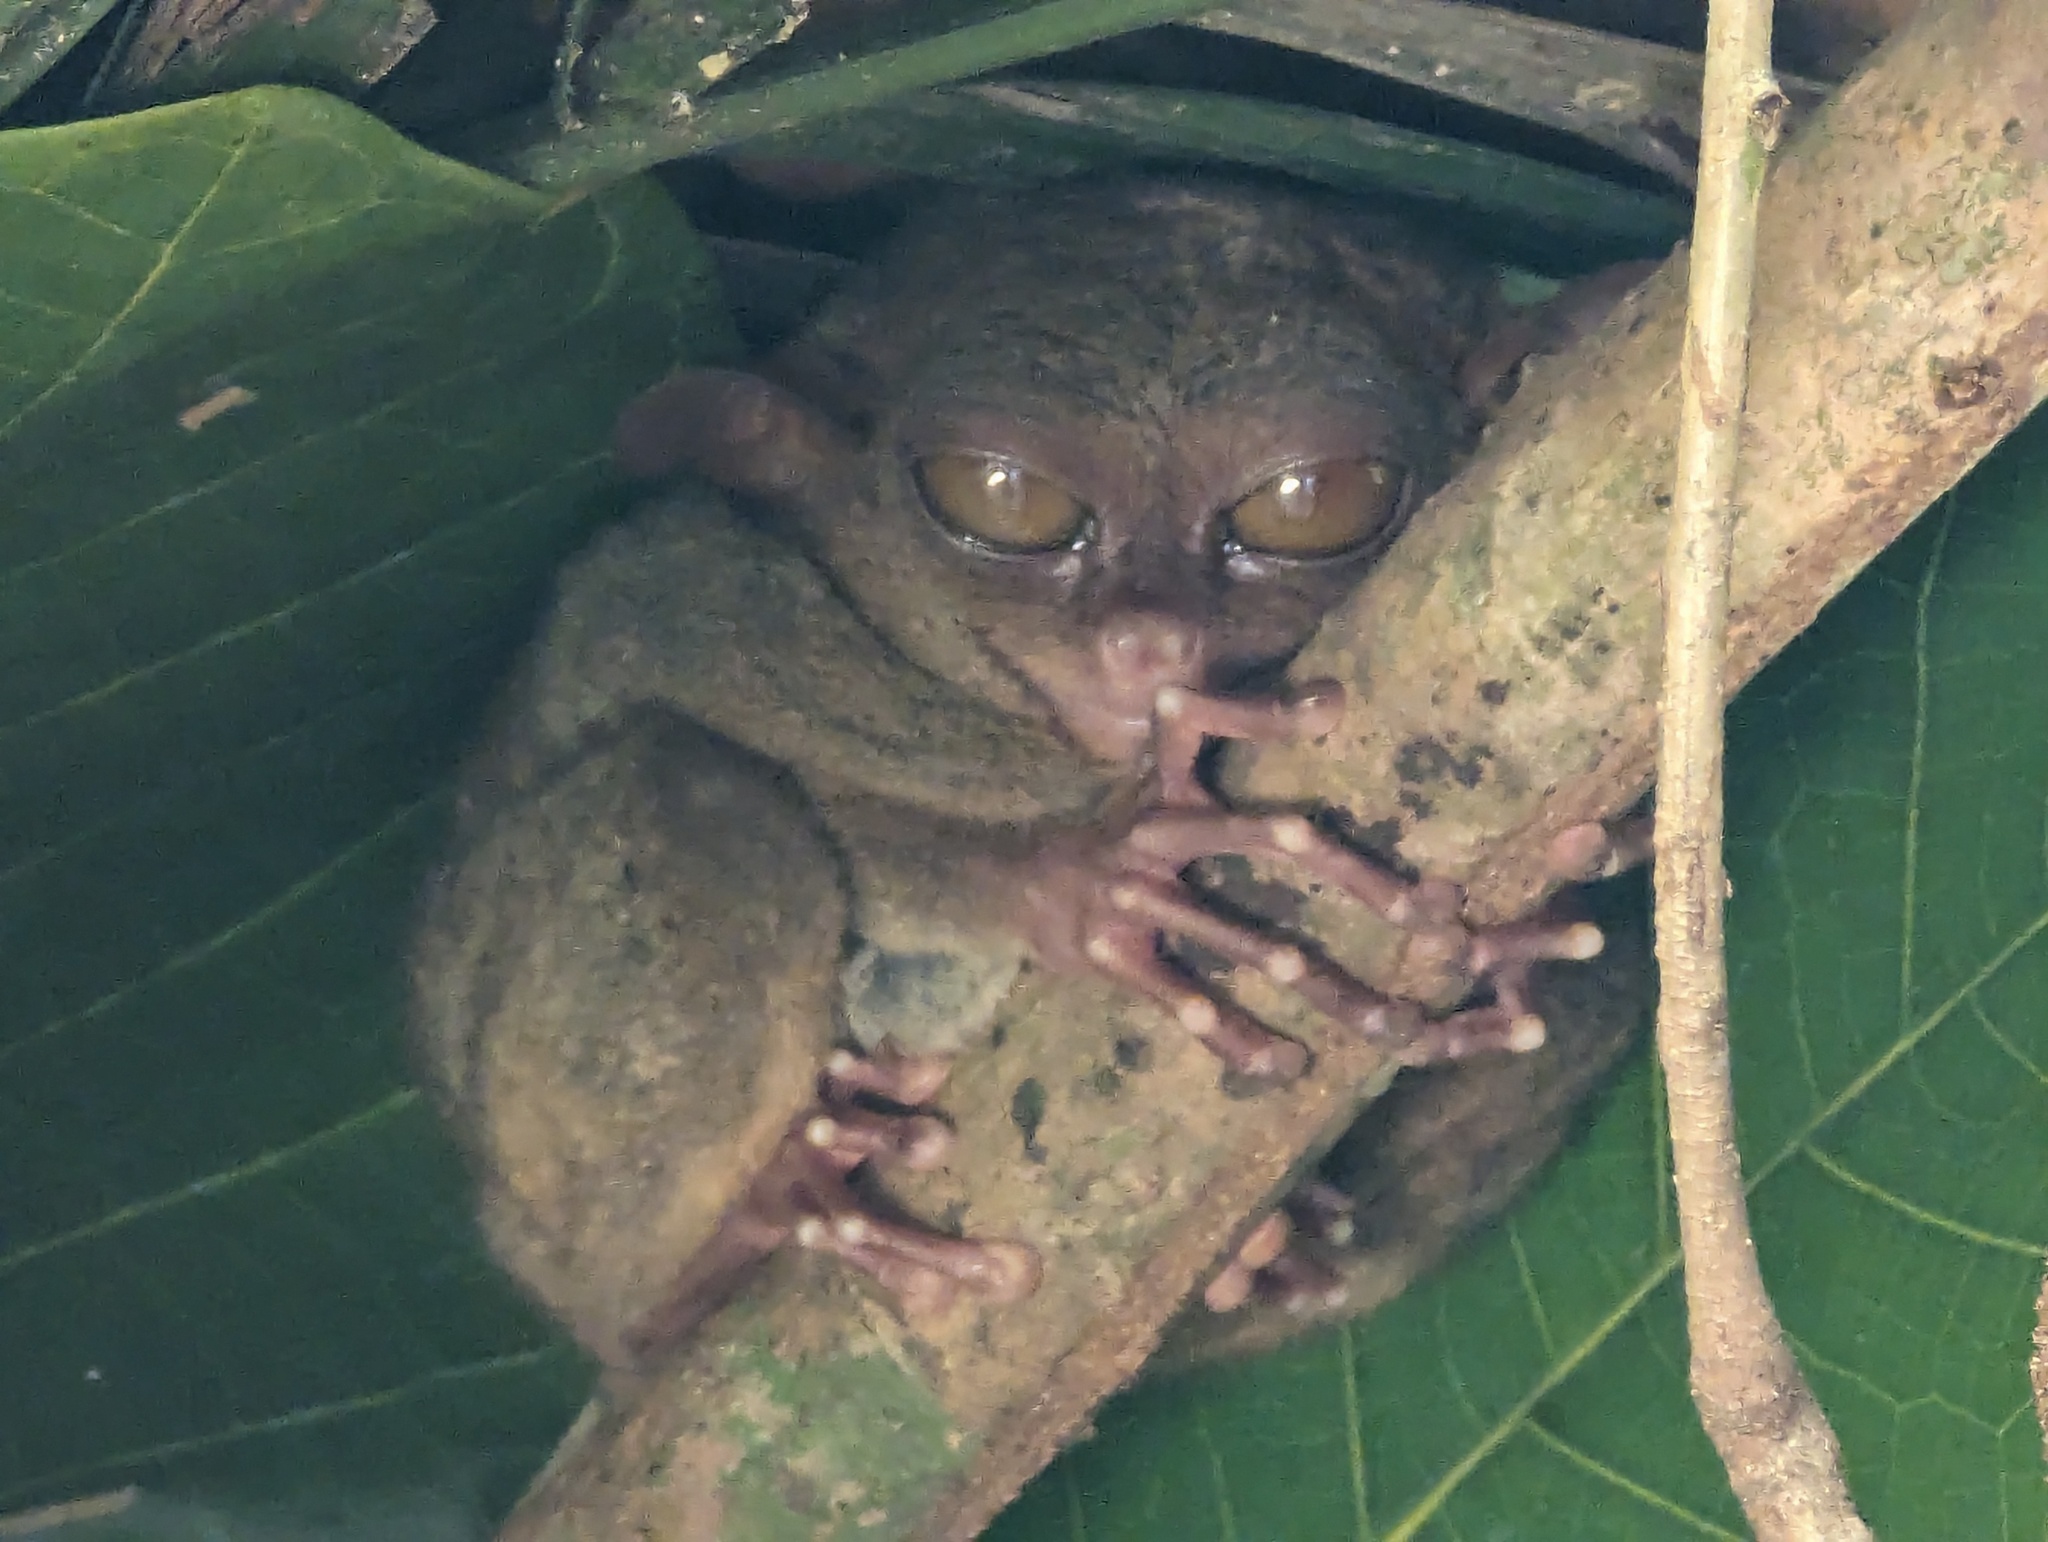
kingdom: Animalia
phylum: Chordata
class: Mammalia
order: Primates
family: Tarsiidae
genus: Carlito
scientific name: Carlito syrichta
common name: Philippine tarsier
